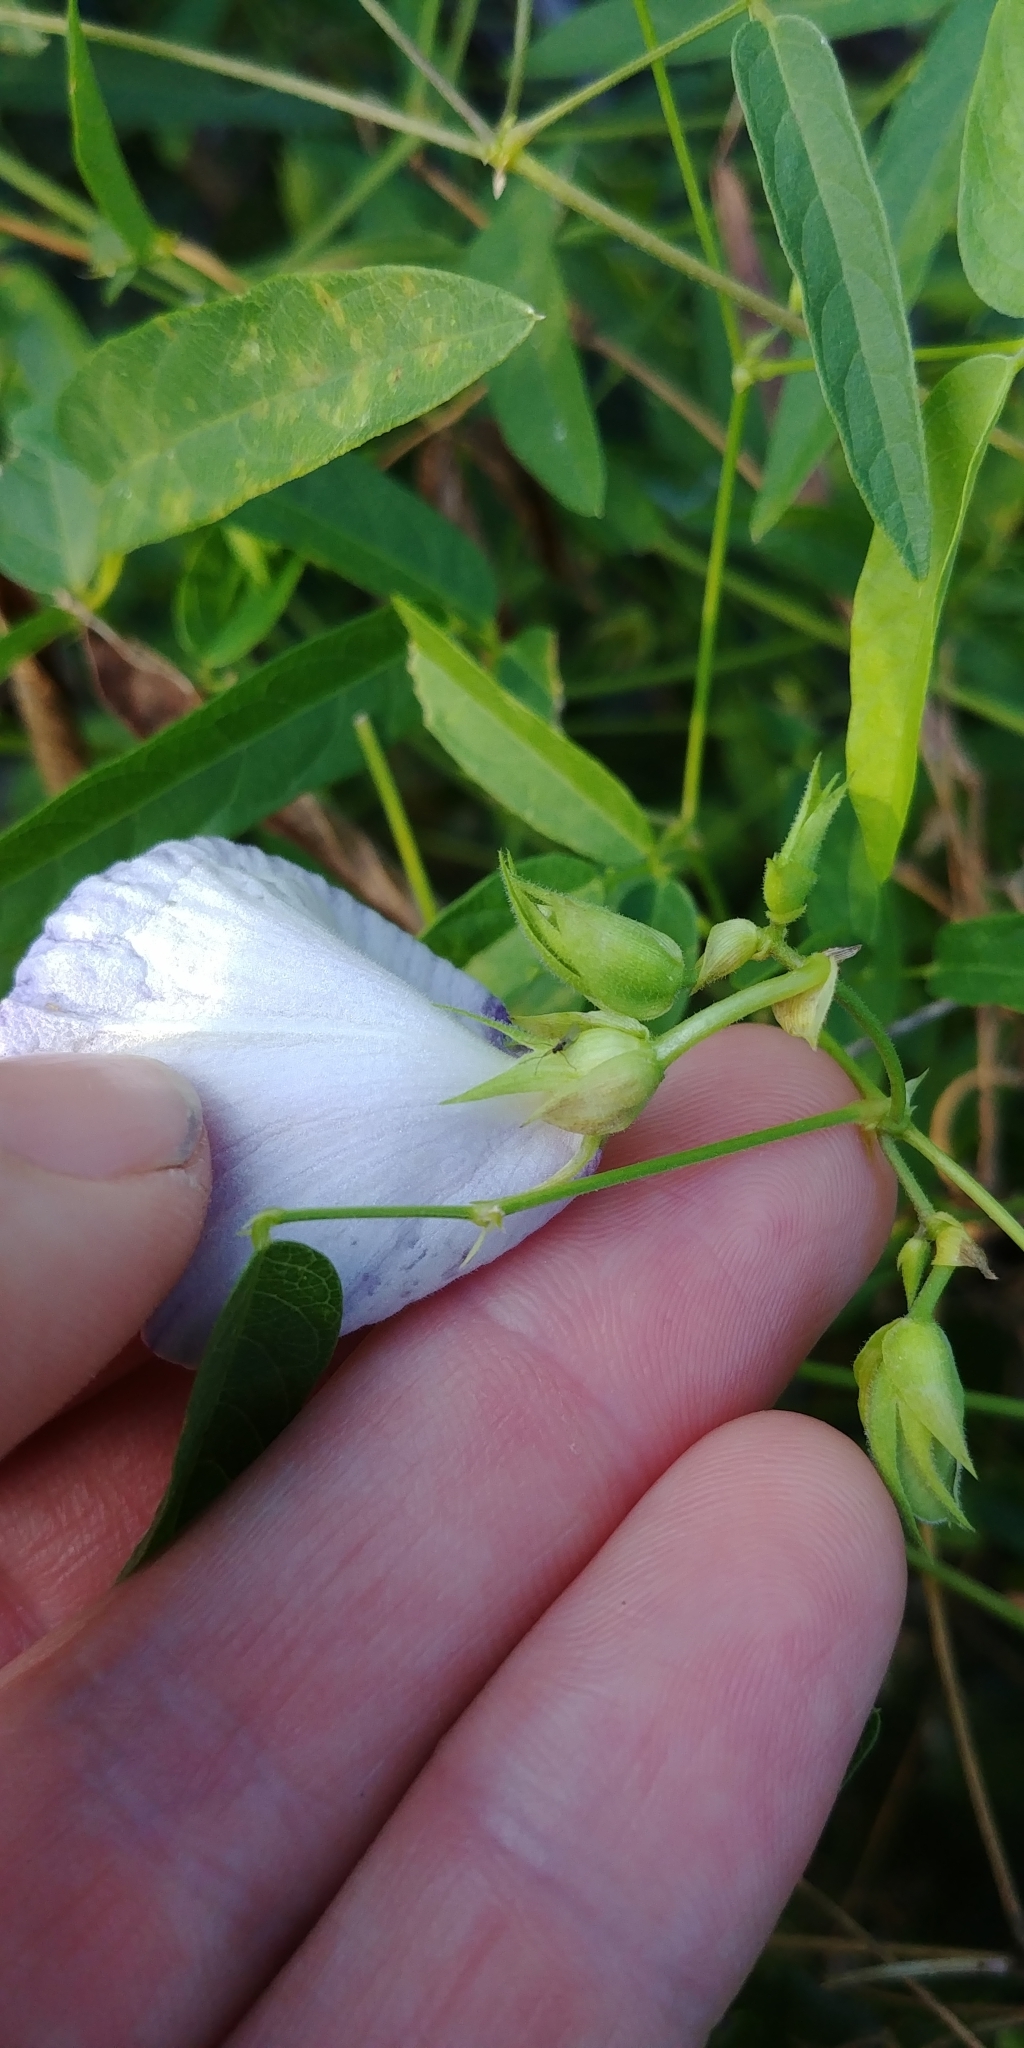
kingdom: Plantae
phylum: Tracheophyta
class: Magnoliopsida
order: Fabales
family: Fabaceae
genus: Centrosema
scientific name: Centrosema virginianum
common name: Butterfly-pea
